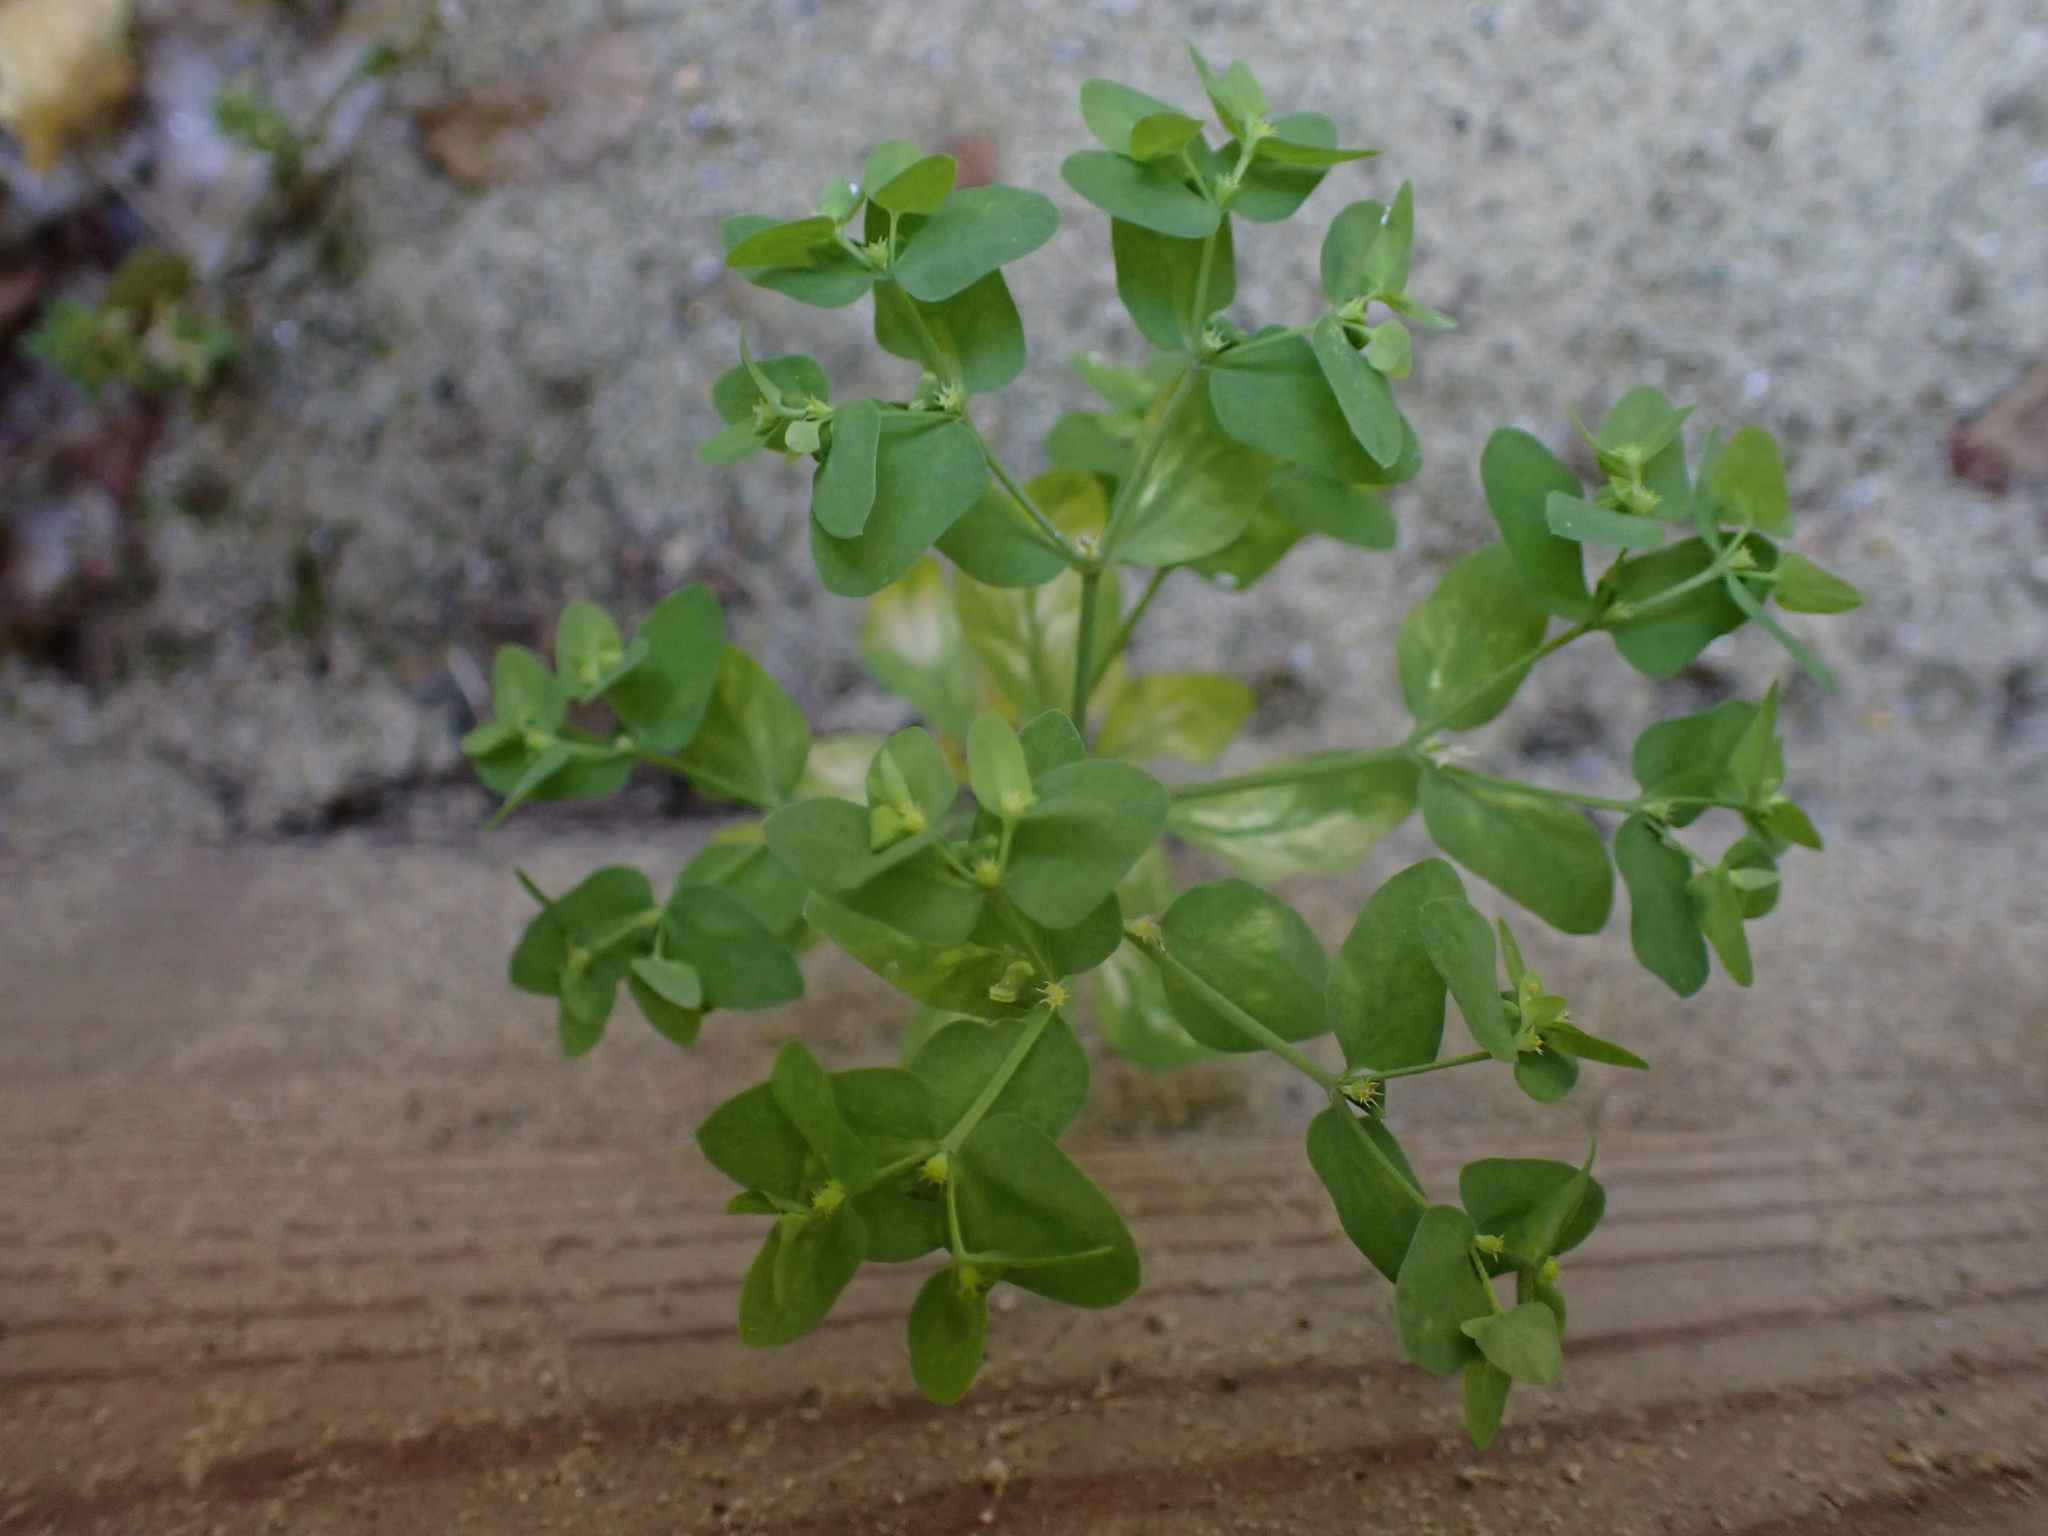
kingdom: Plantae
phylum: Tracheophyta
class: Magnoliopsida
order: Malpighiales
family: Euphorbiaceae
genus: Euphorbia
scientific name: Euphorbia peplus
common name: Petty spurge
